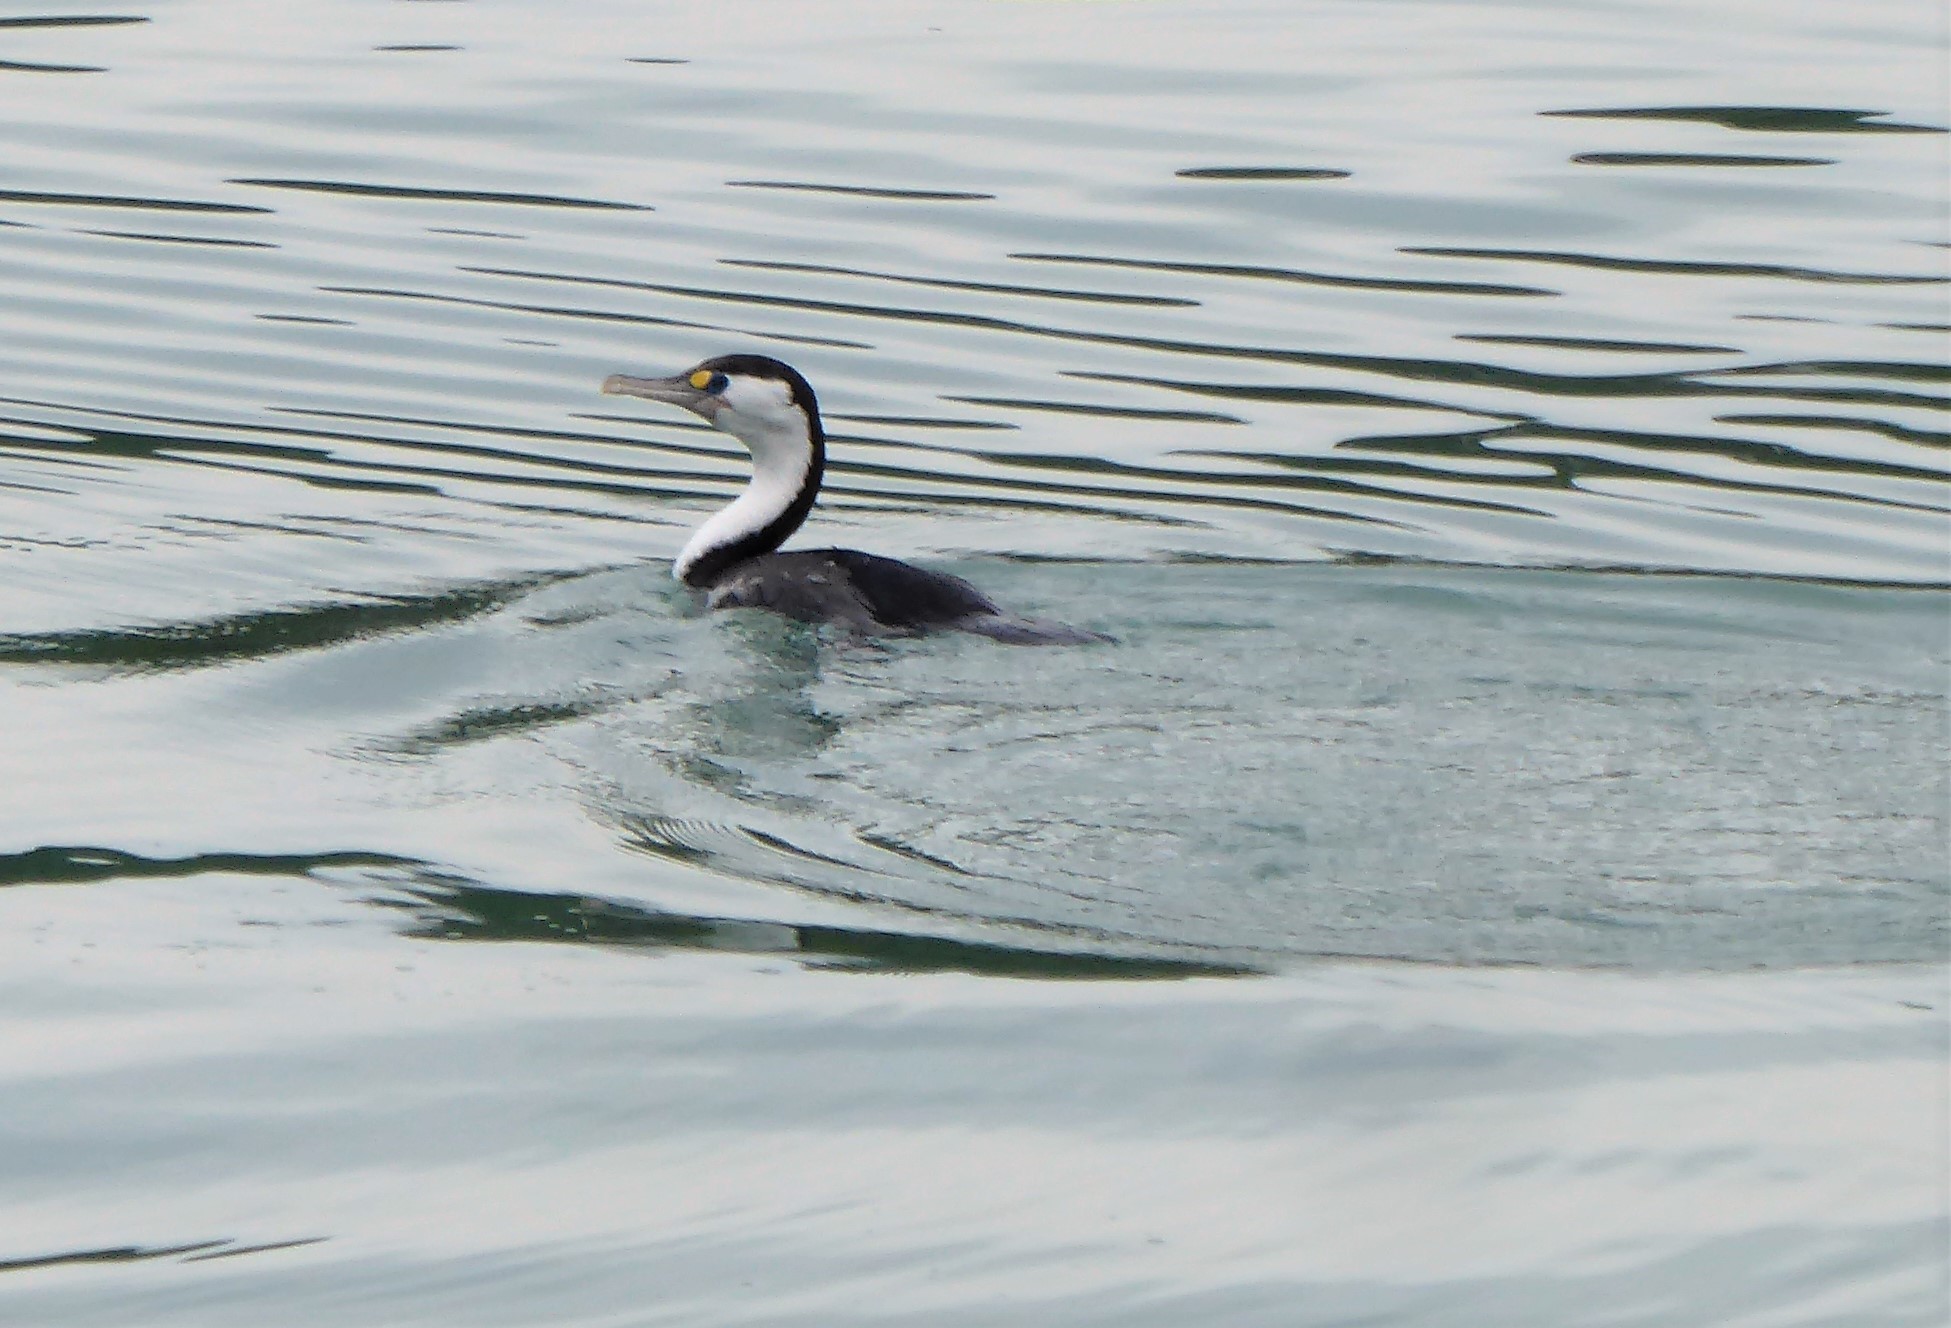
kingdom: Animalia
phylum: Chordata
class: Aves
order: Suliformes
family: Phalacrocoracidae
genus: Phalacrocorax
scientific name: Phalacrocorax varius
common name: Pied cormorant
